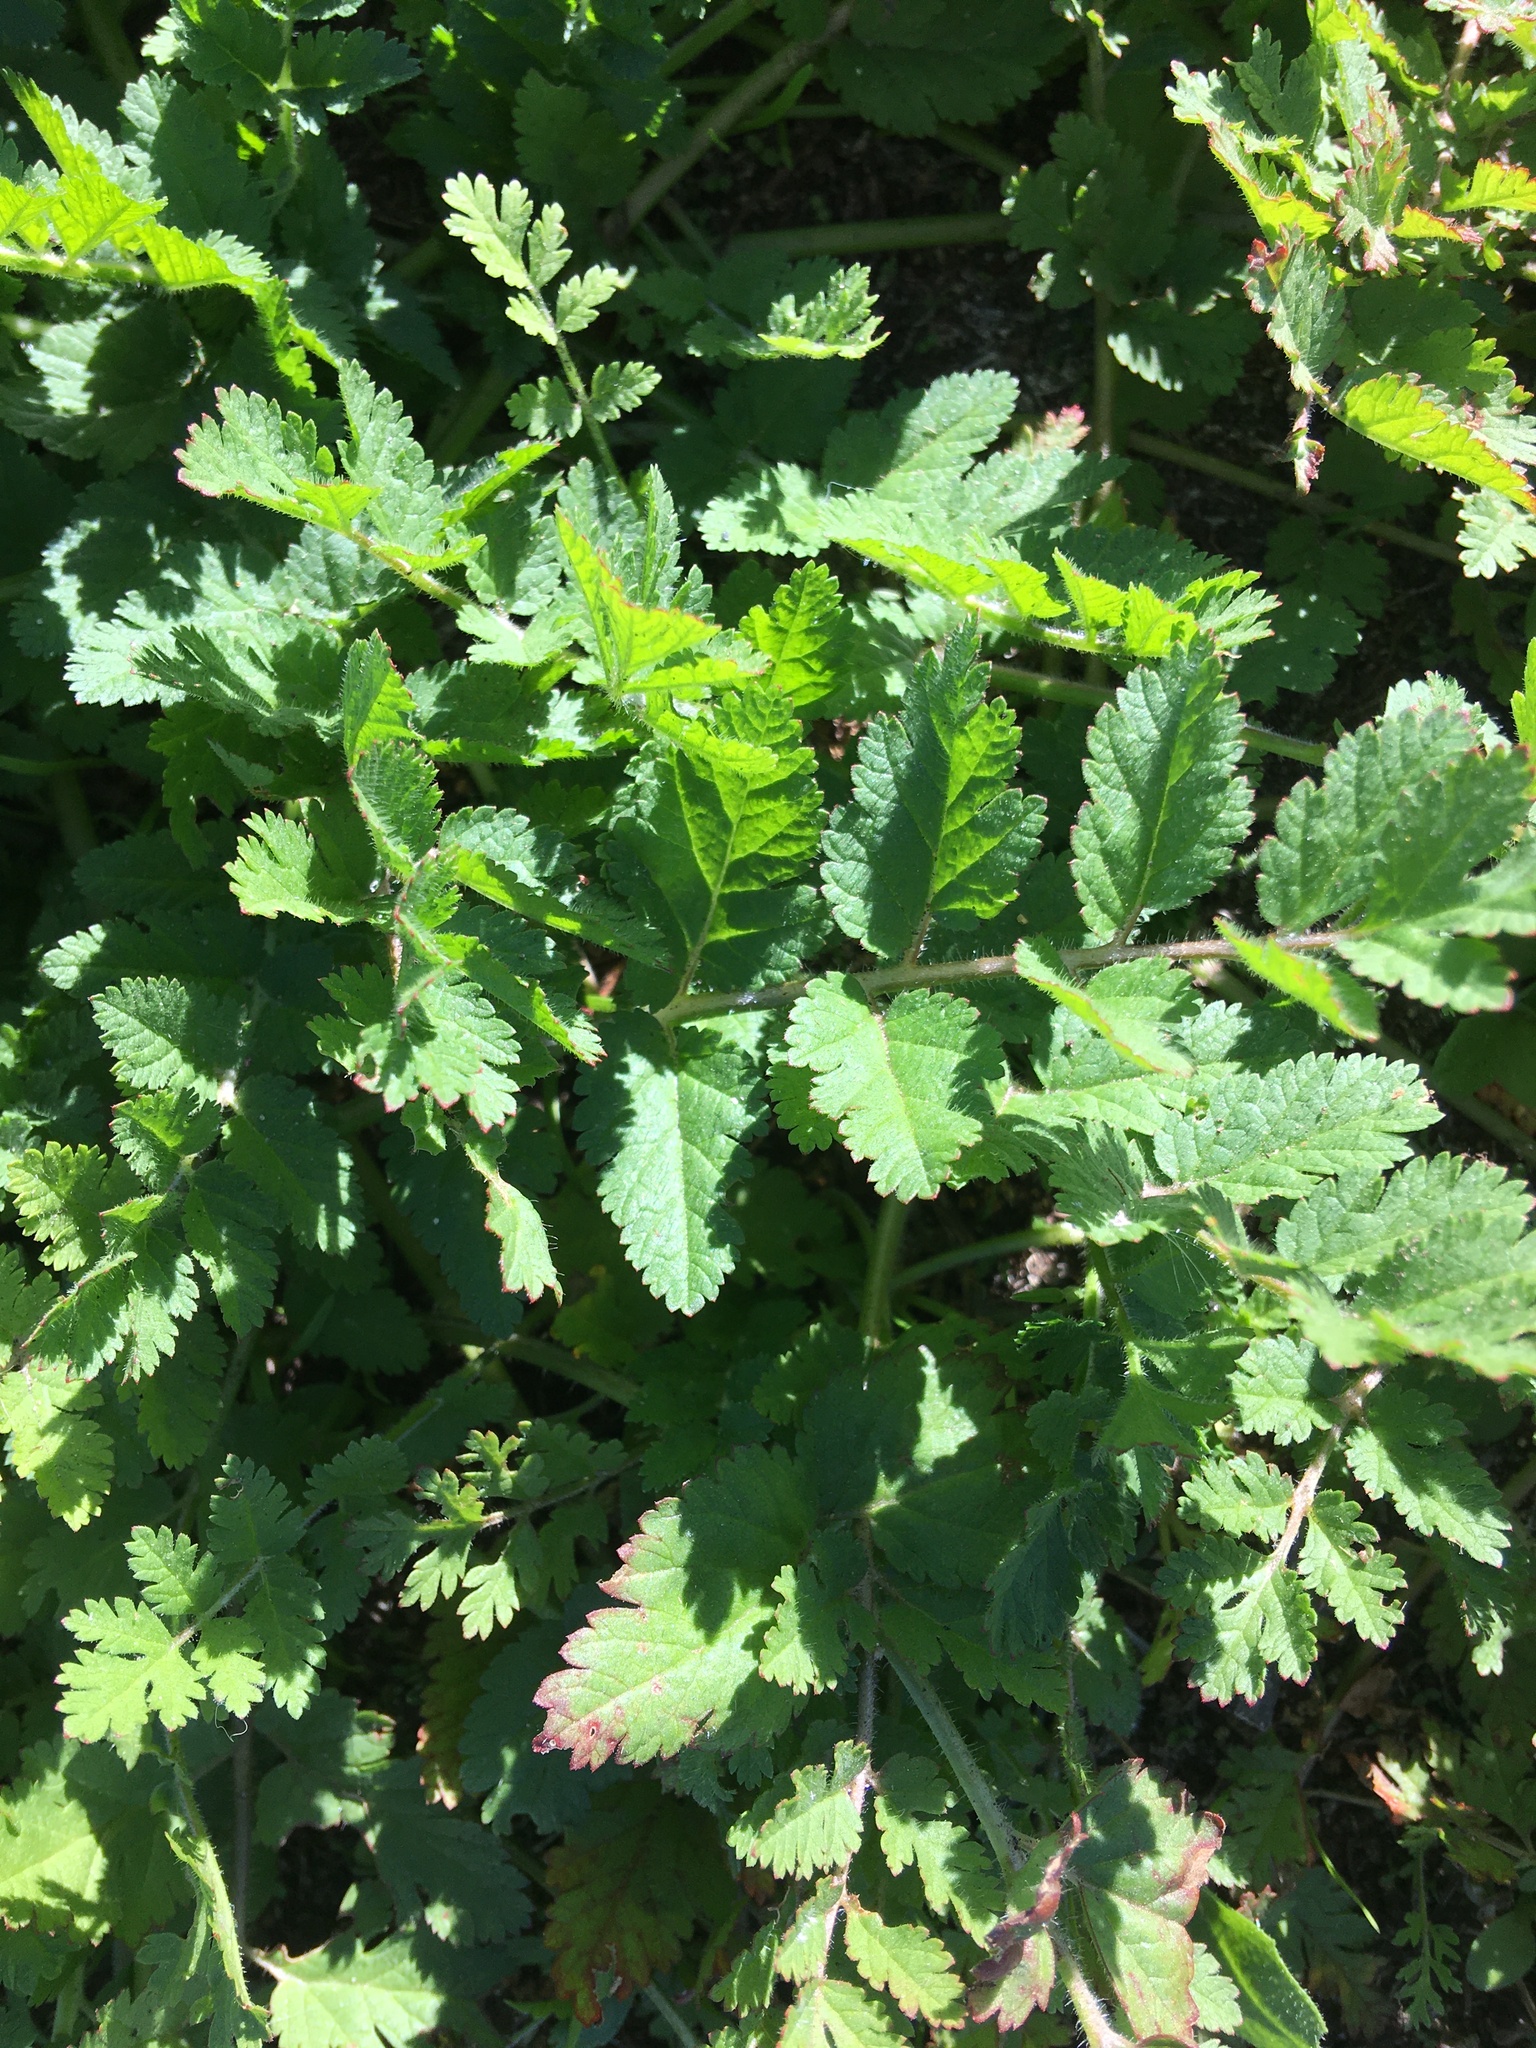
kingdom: Plantae
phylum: Tracheophyta
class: Magnoliopsida
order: Geraniales
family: Geraniaceae
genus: Erodium
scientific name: Erodium moschatum
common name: Musk stork's-bill
